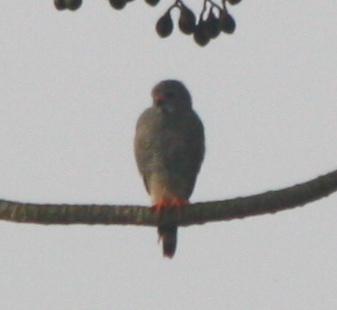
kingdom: Animalia
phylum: Chordata
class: Aves
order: Accipitriformes
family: Accipitridae
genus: Kaupifalco
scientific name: Kaupifalco monogrammicus
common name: Lizard buzzard
